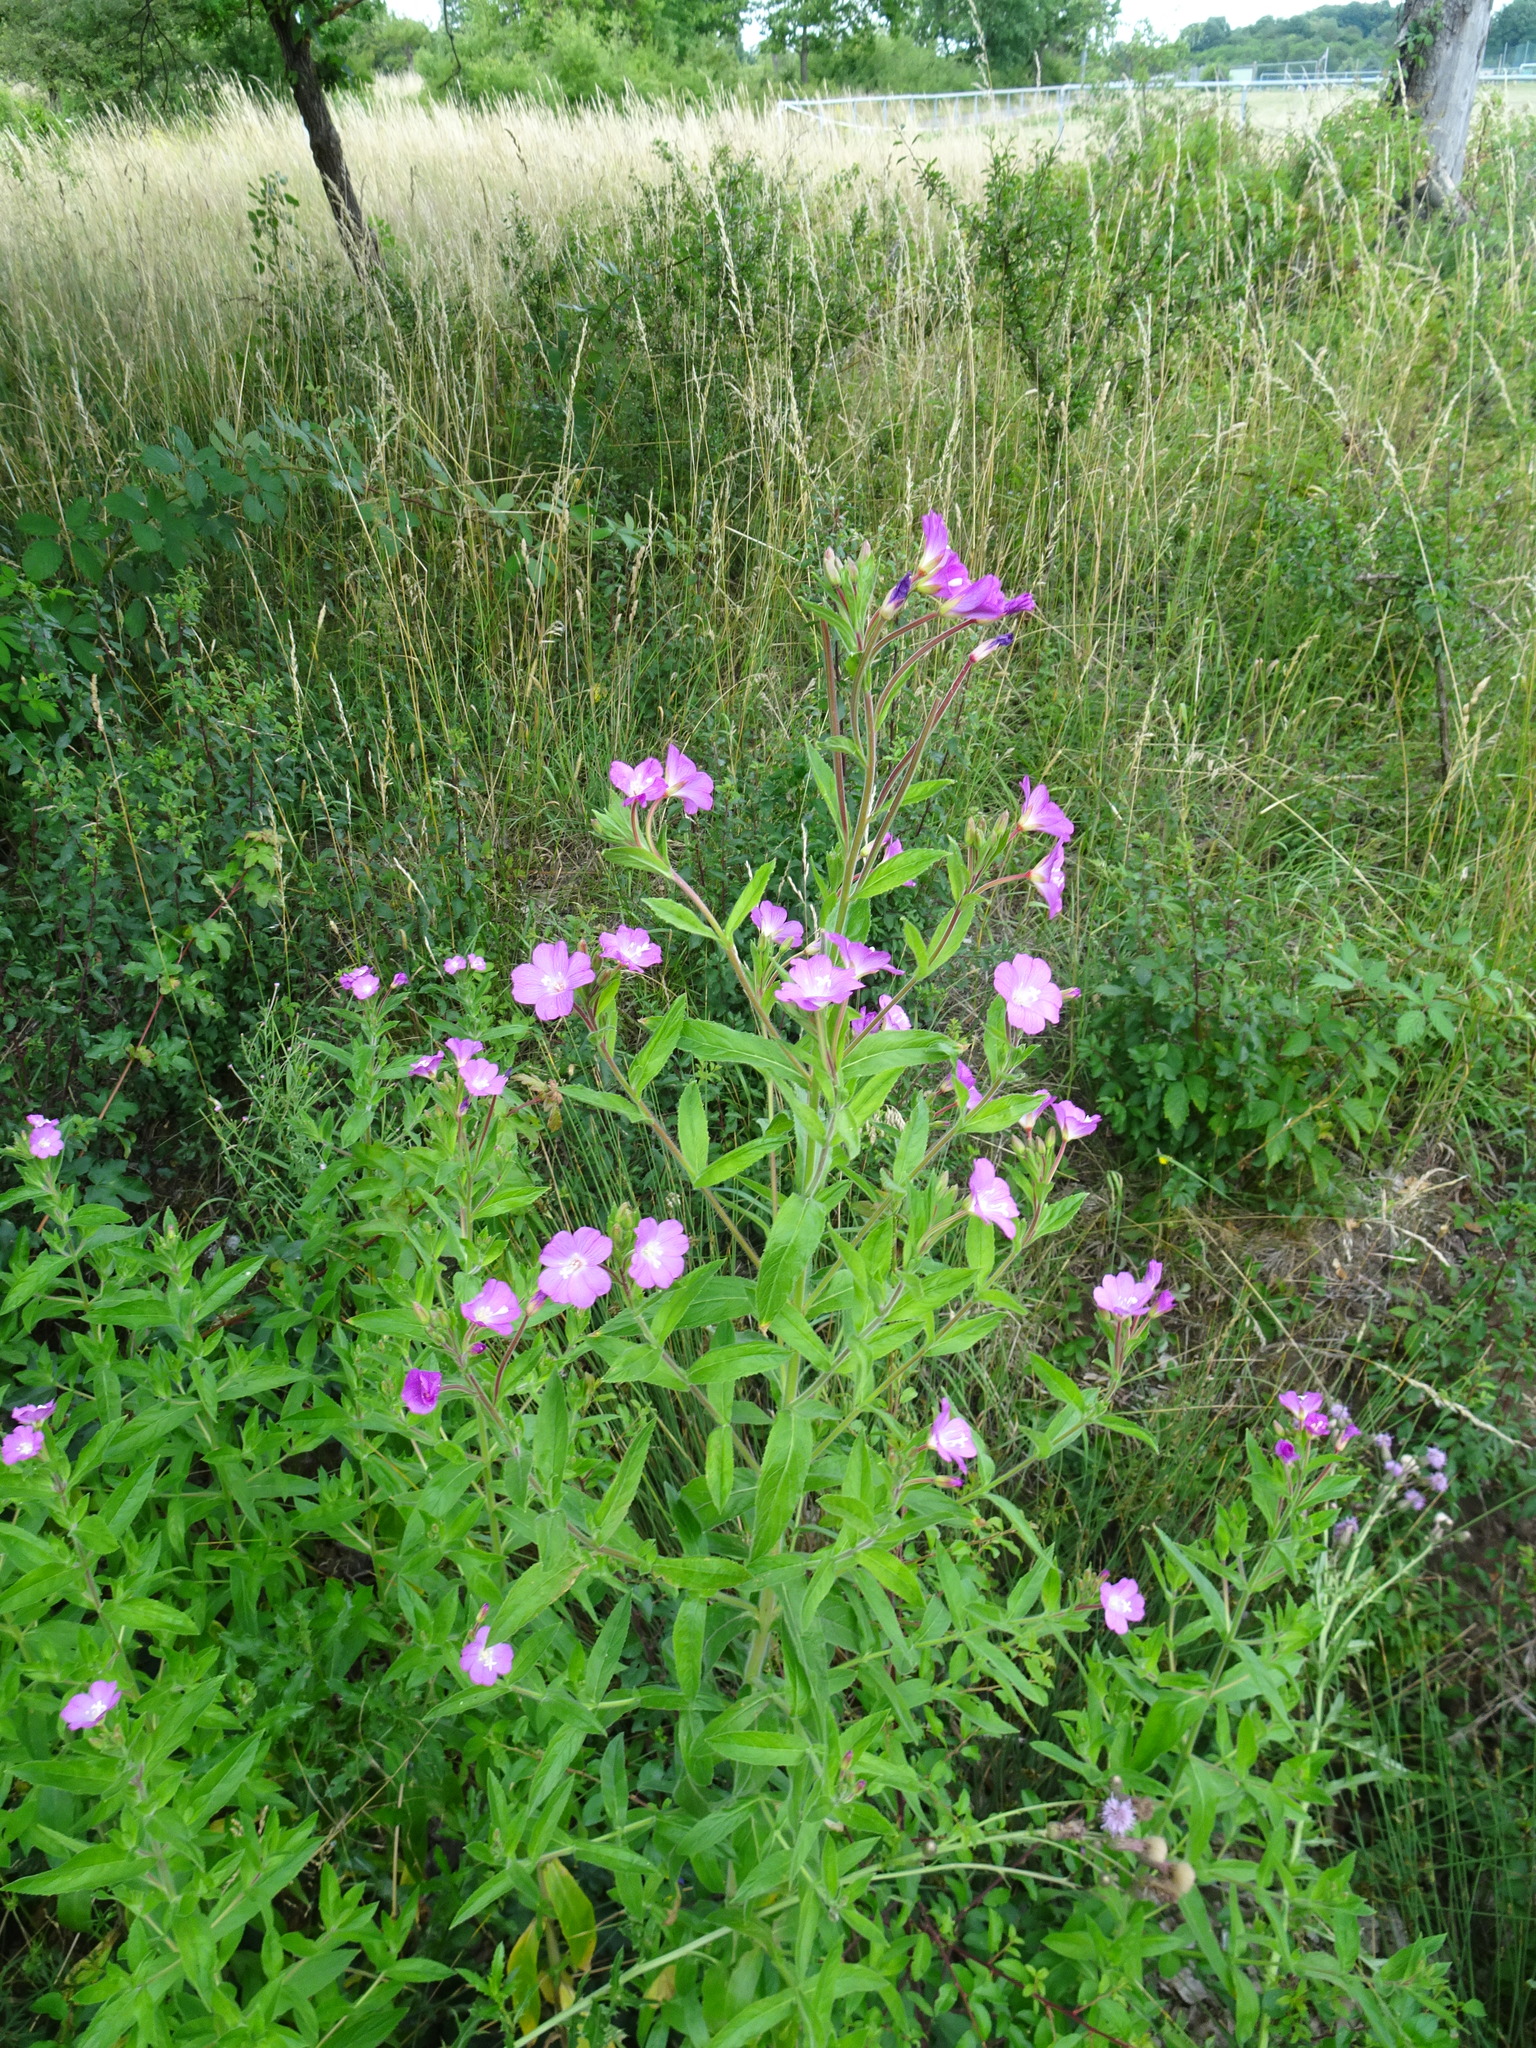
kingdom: Plantae
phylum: Tracheophyta
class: Magnoliopsida
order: Myrtales
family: Onagraceae
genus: Epilobium
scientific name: Epilobium hirsutum
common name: Great willowherb
